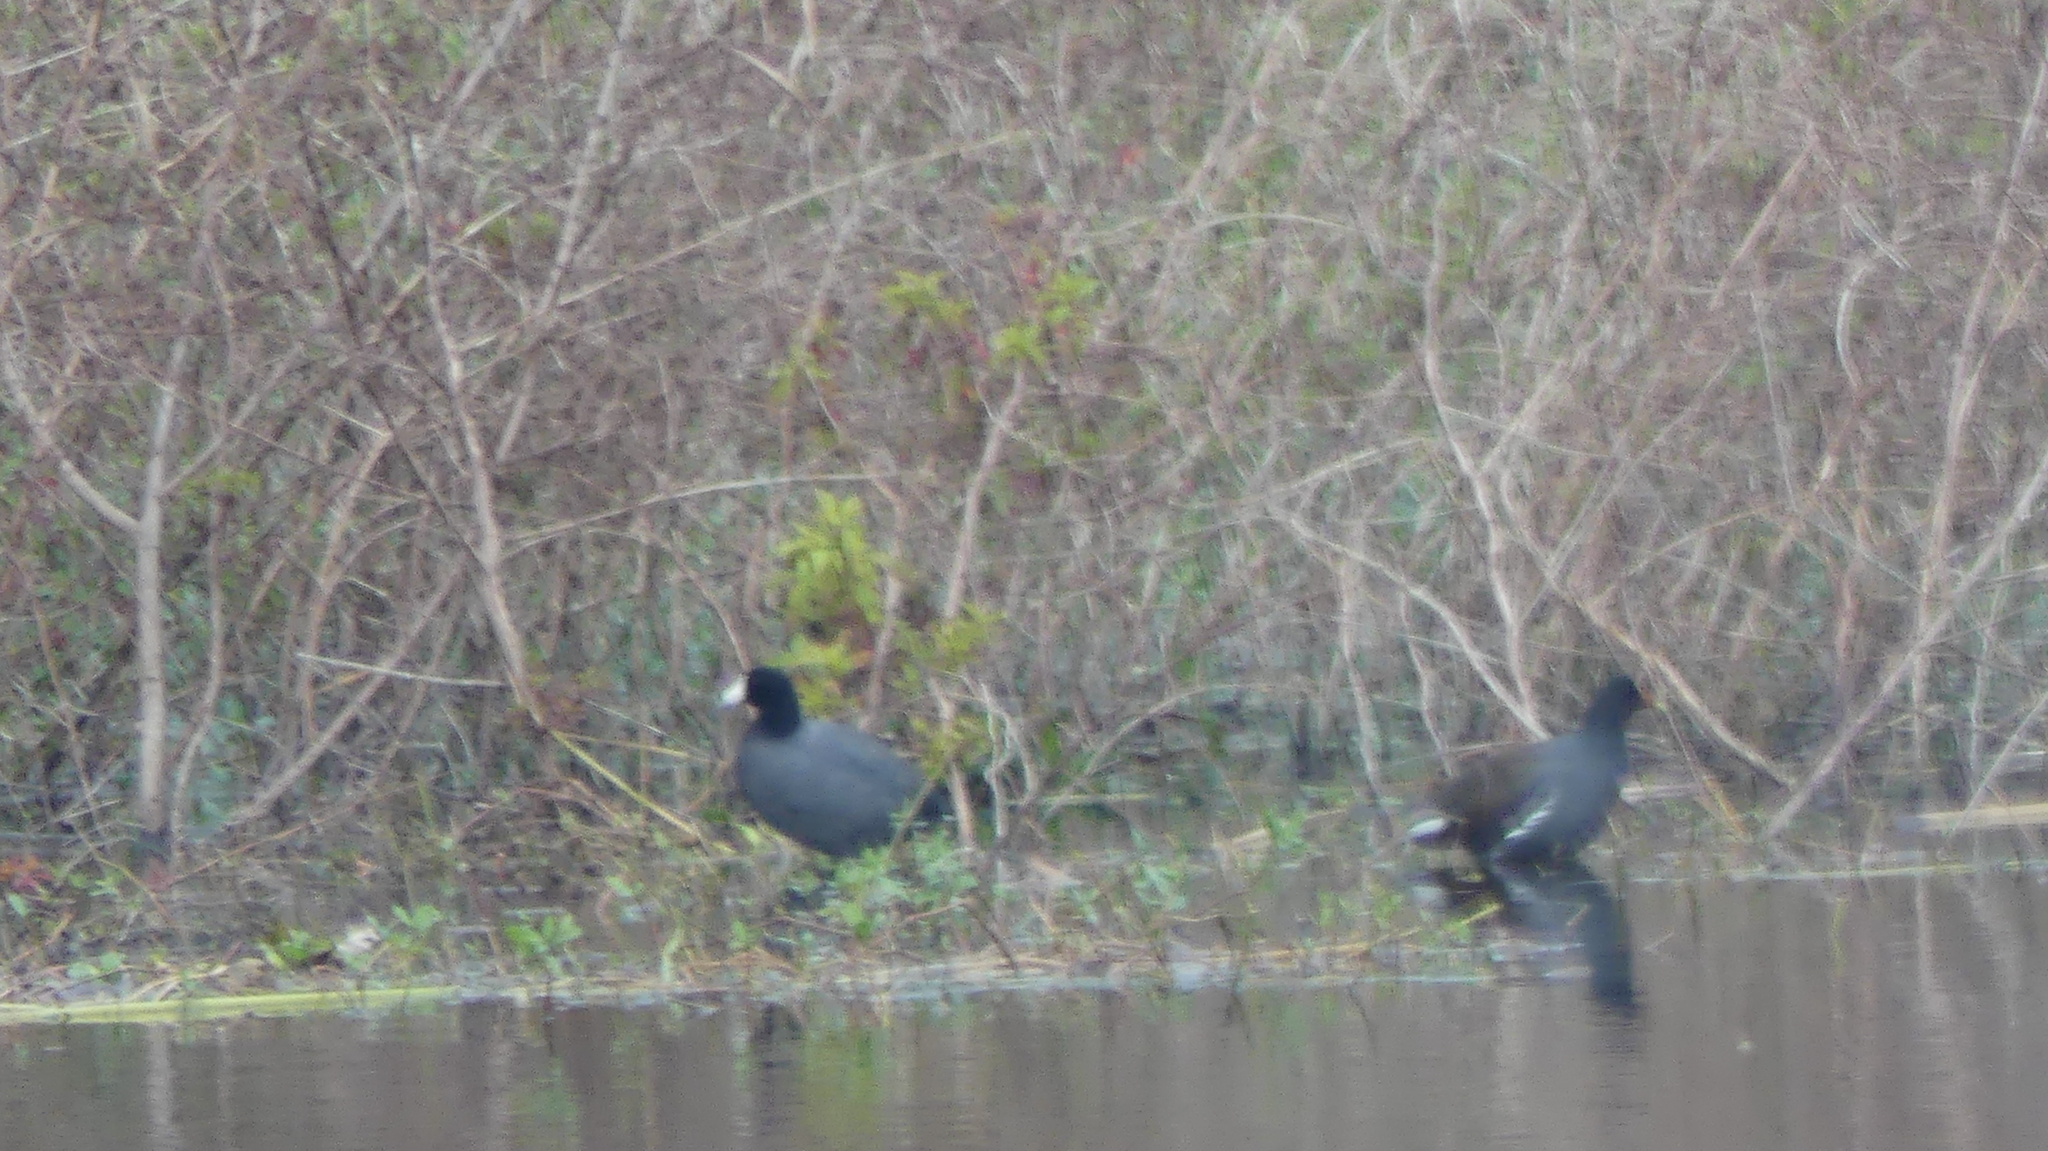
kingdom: Animalia
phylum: Chordata
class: Aves
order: Gruiformes
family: Rallidae
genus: Fulica
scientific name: Fulica americana
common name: American coot
